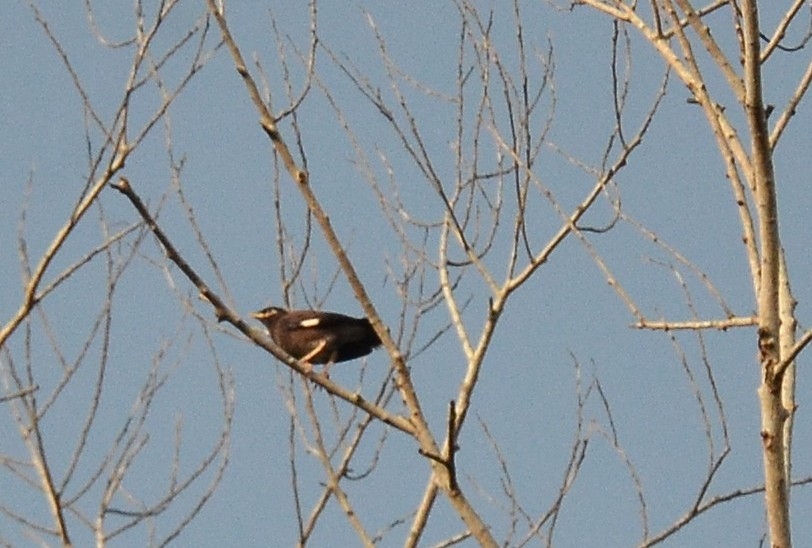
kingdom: Animalia
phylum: Chordata
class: Aves
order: Passeriformes
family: Sturnidae
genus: Acridotheres
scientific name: Acridotheres tristis
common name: Common myna
